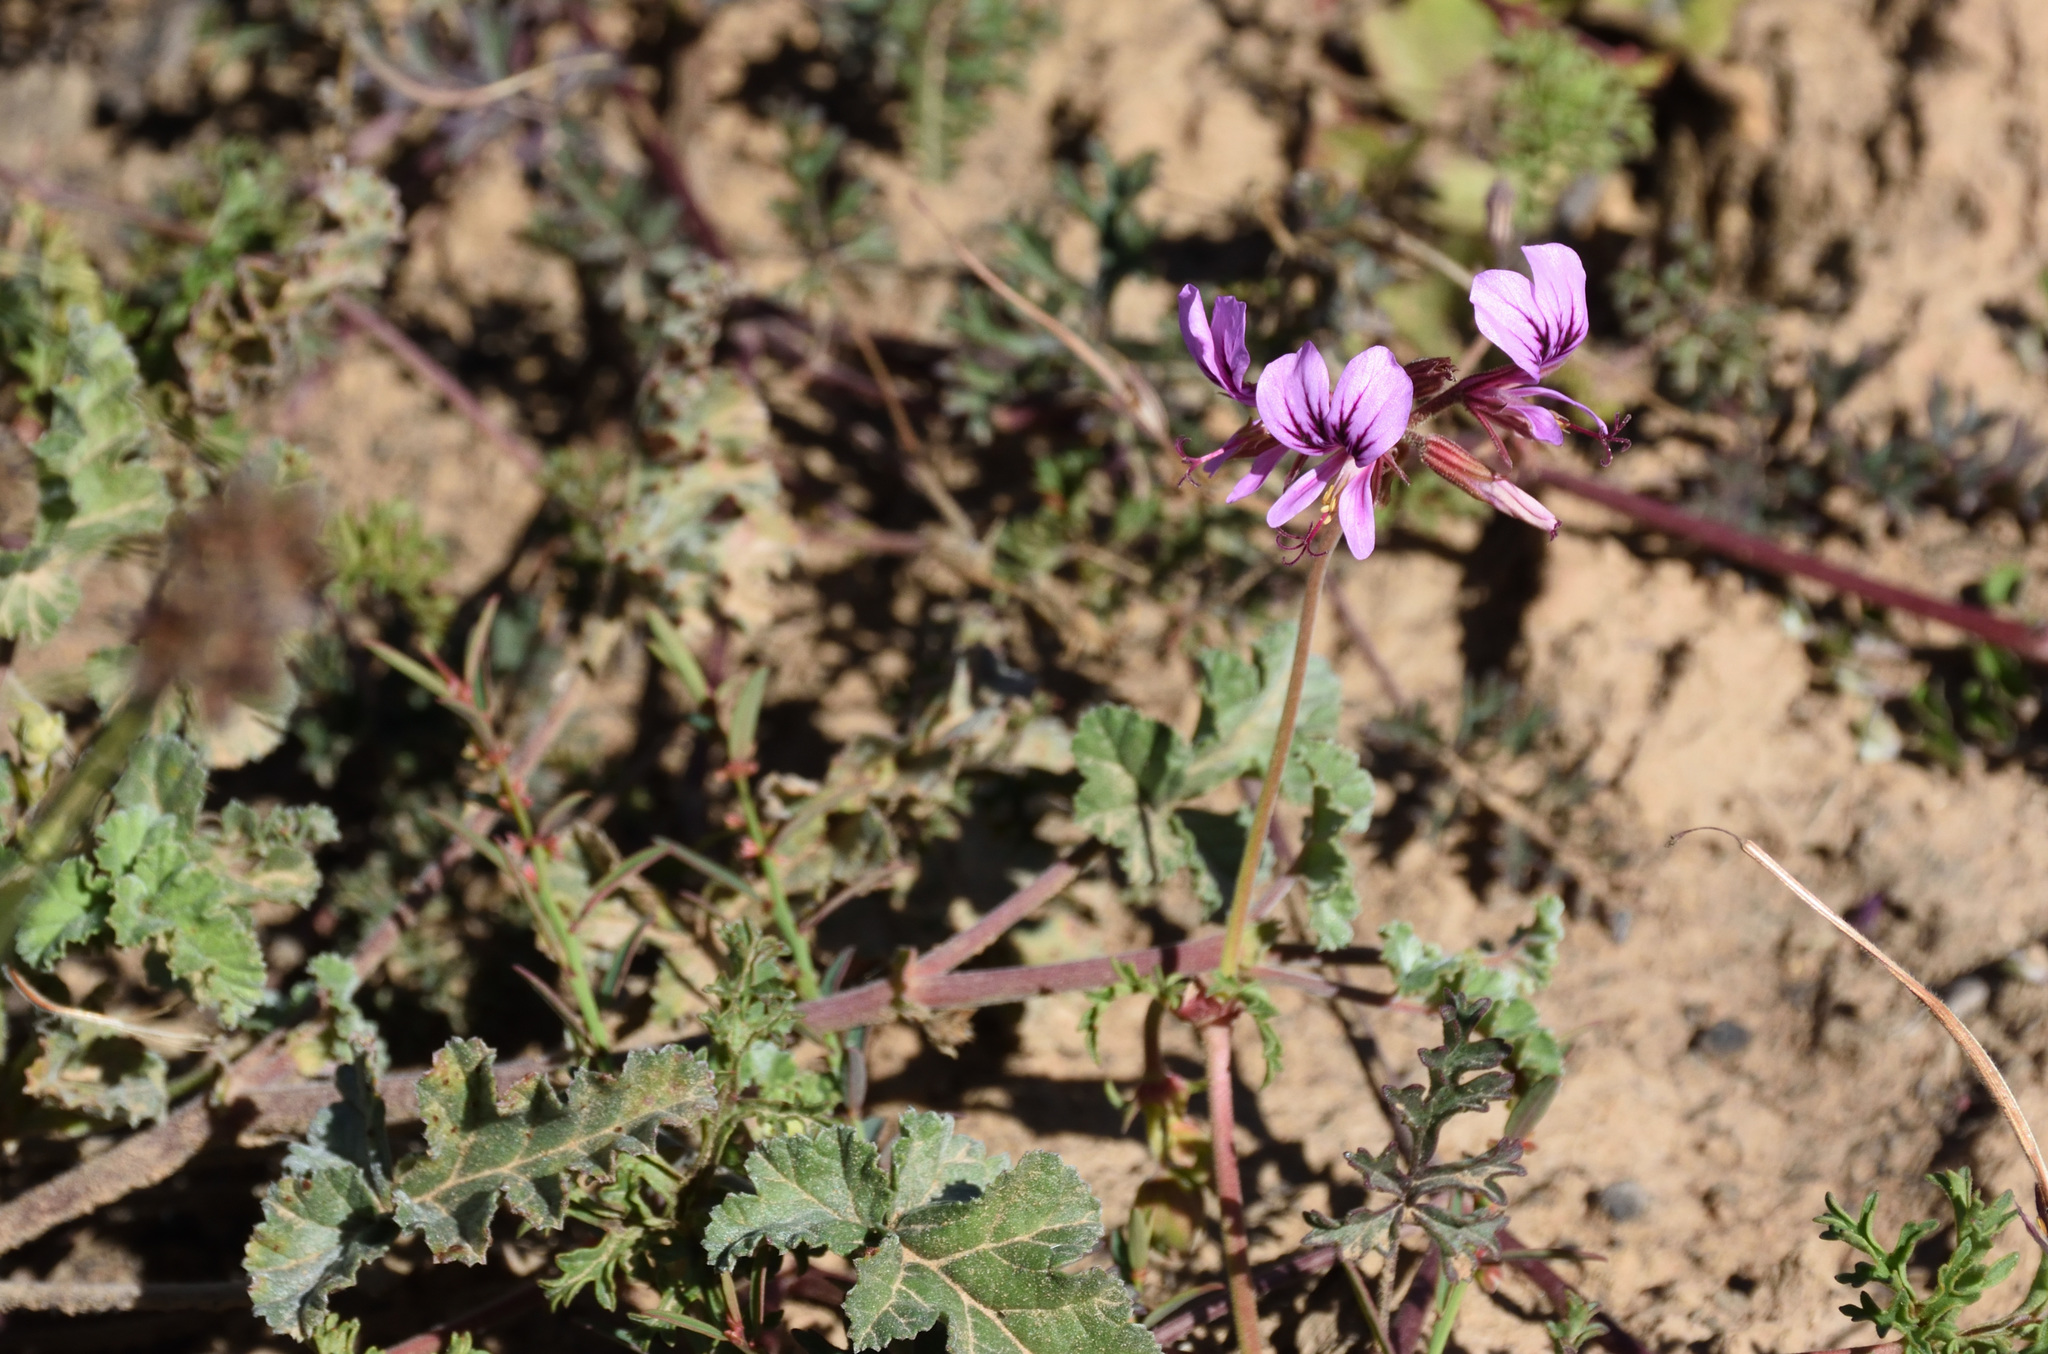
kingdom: Plantae
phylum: Tracheophyta
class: Magnoliopsida
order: Geraniales
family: Geraniaceae
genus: Pelargonium
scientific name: Pelargonium myrrhifolium
